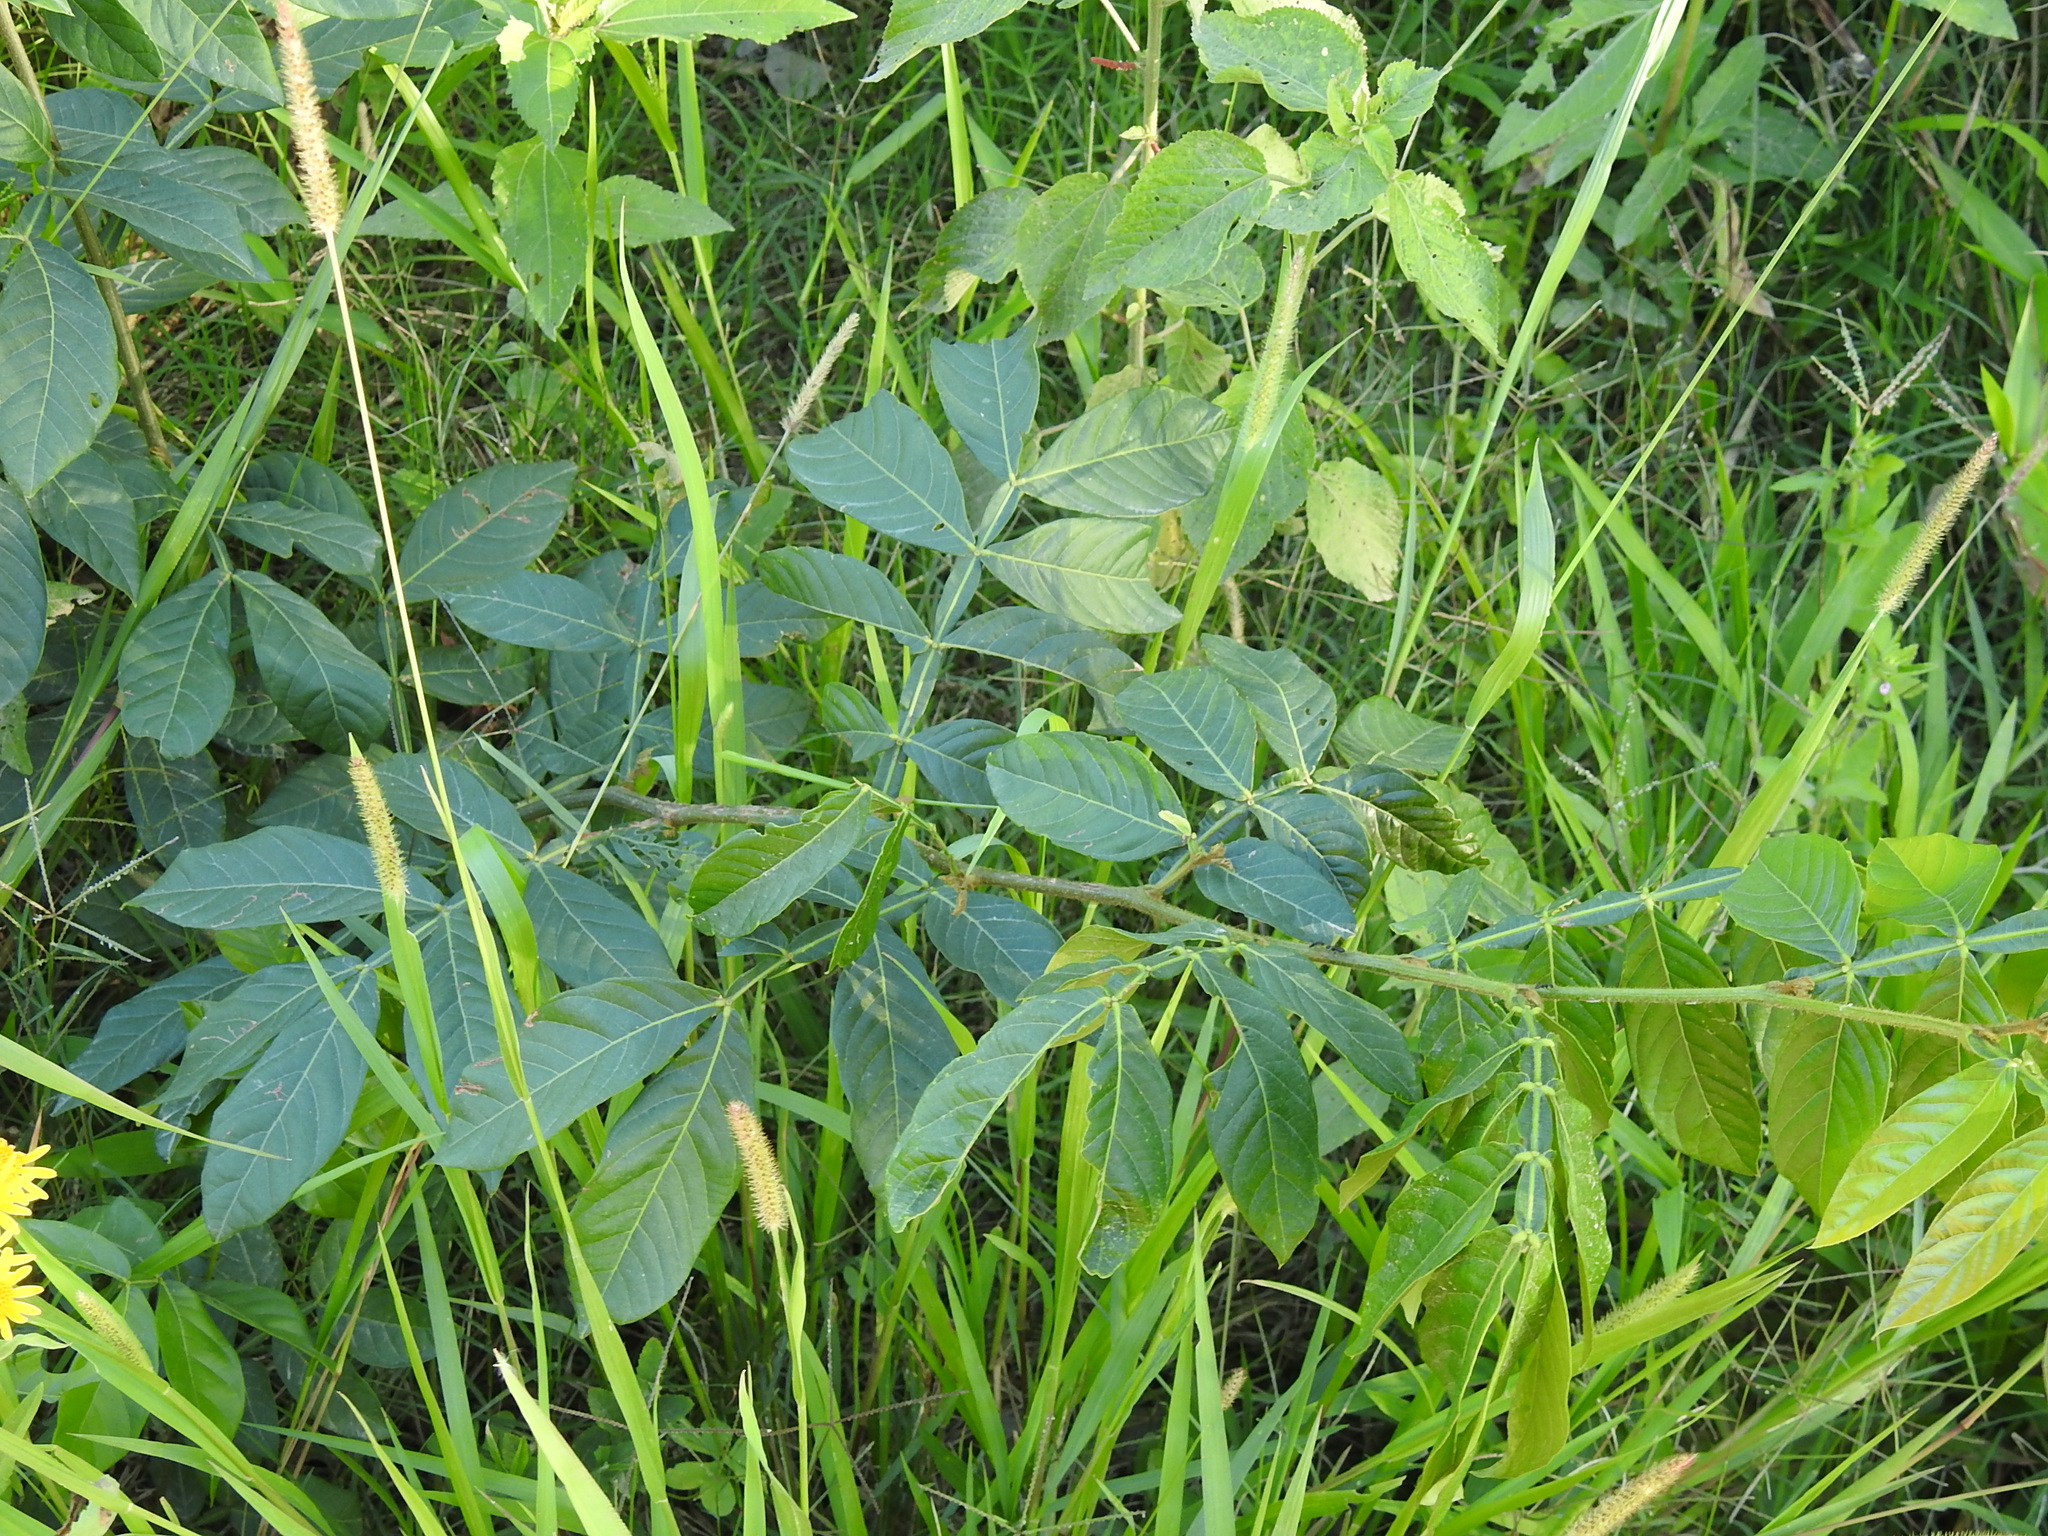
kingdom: Plantae
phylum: Tracheophyta
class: Magnoliopsida
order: Fabales
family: Fabaceae
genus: Inga
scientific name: Inga uraguensis
